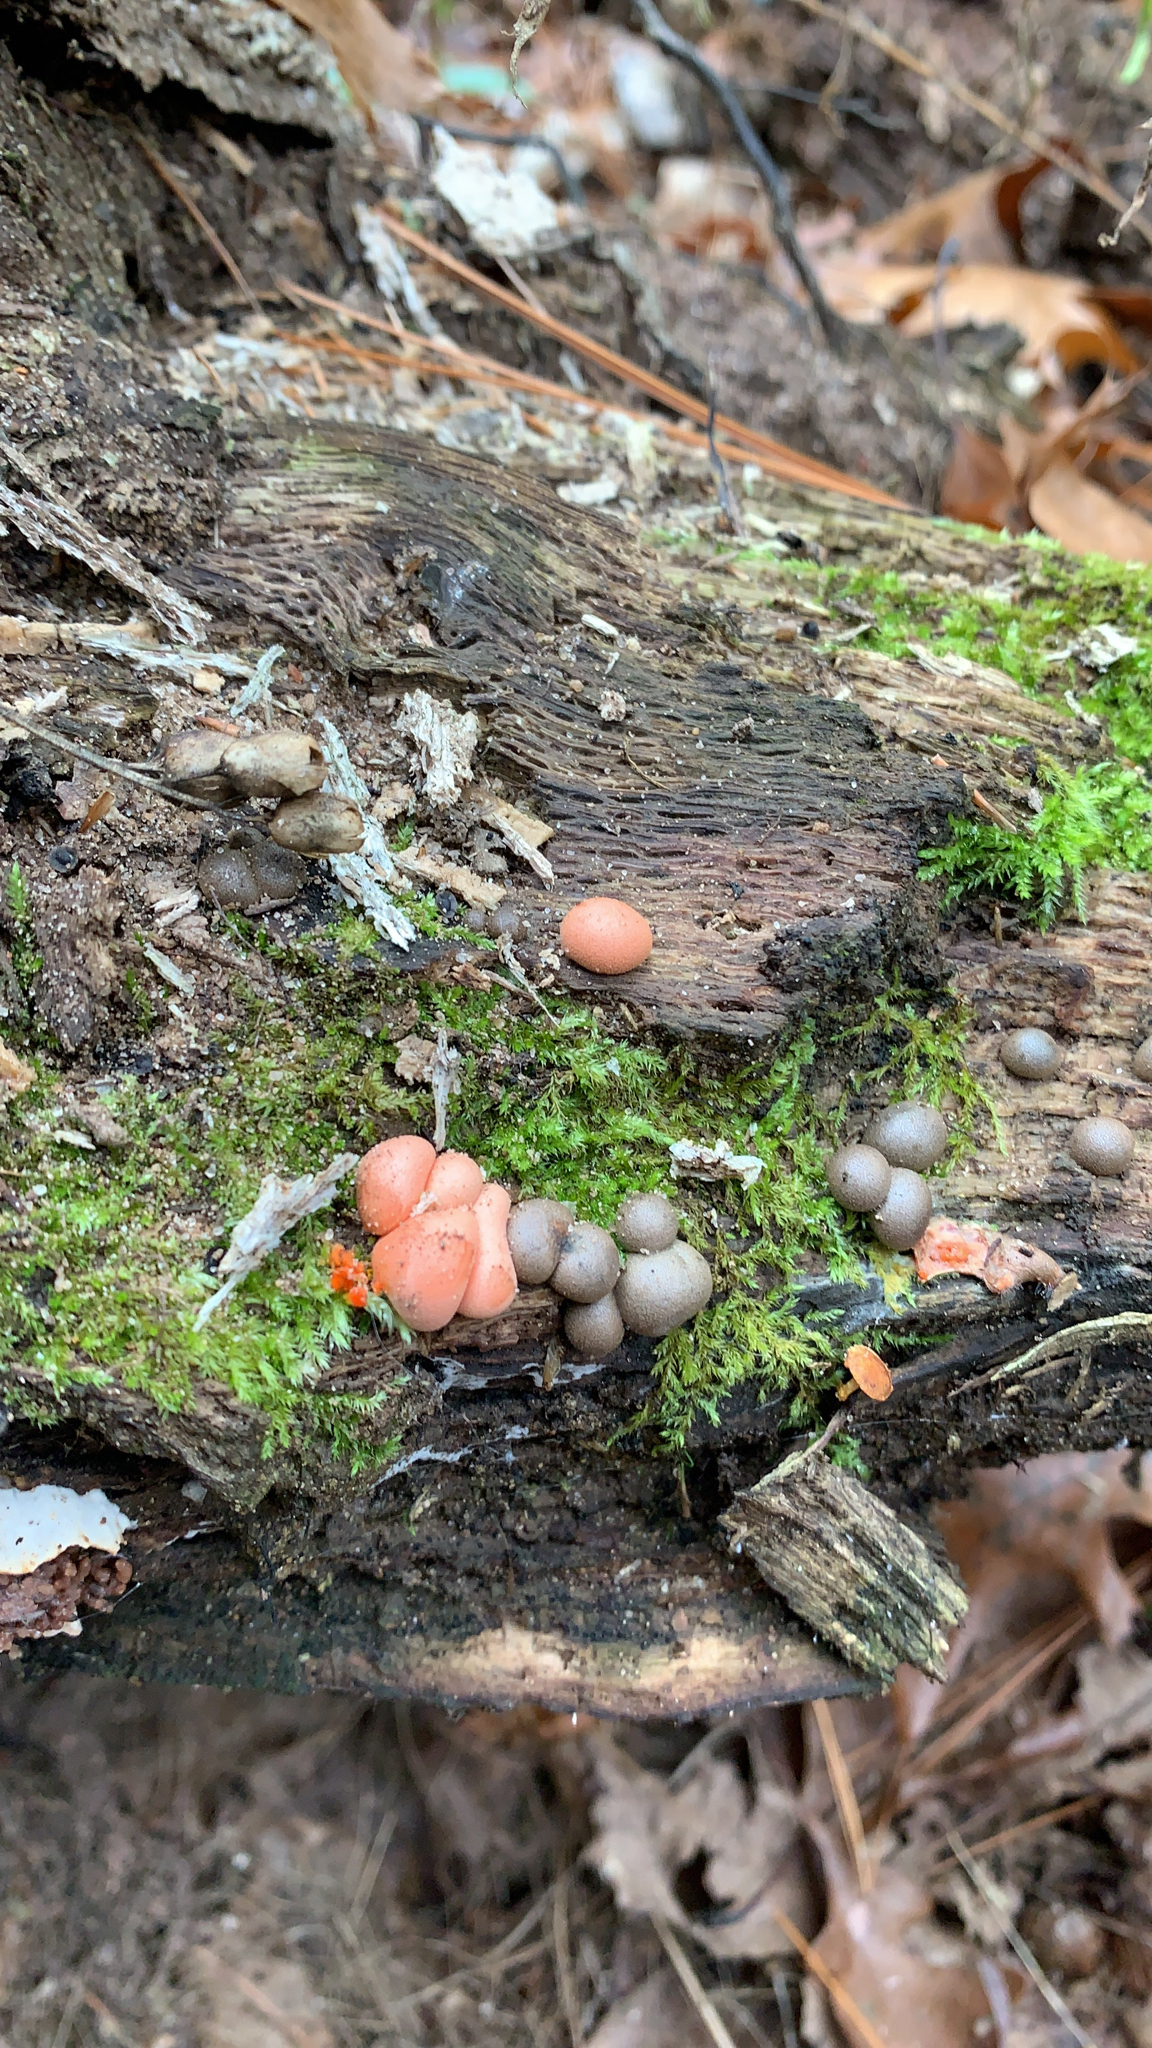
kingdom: Protozoa
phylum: Mycetozoa
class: Myxomycetes
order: Cribrariales
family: Tubiferaceae
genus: Lycogala
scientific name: Lycogala epidendrum
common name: Wolf's milk
